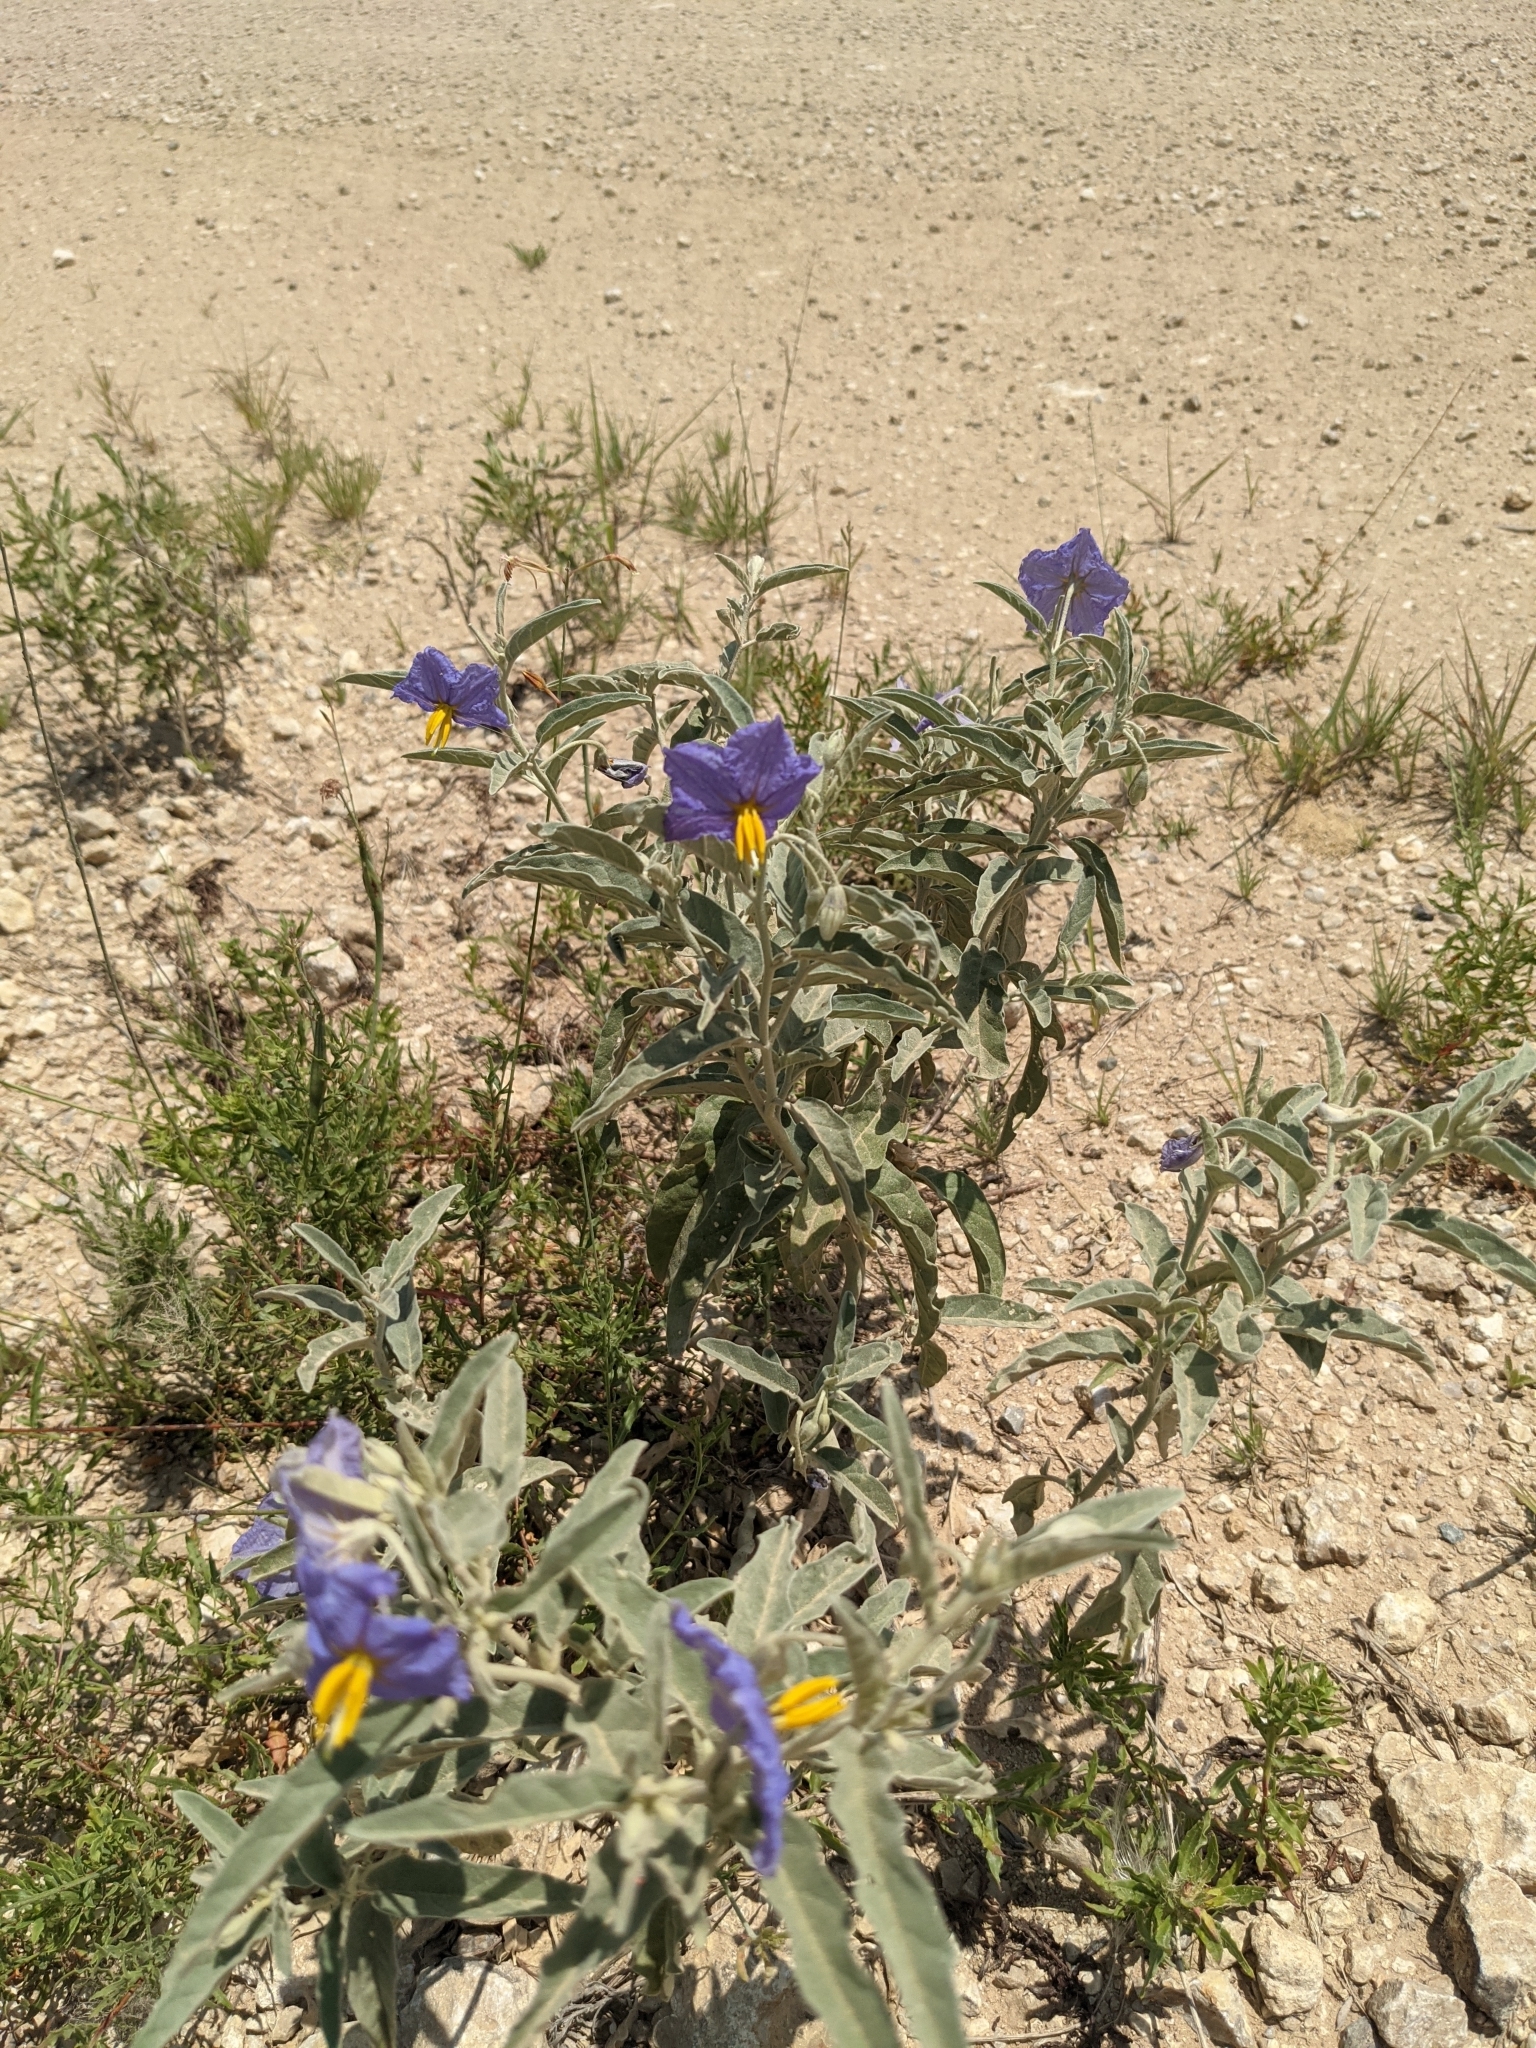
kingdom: Plantae
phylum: Tracheophyta
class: Magnoliopsida
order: Solanales
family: Solanaceae
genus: Solanum
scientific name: Solanum elaeagnifolium
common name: Silverleaf nightshade
